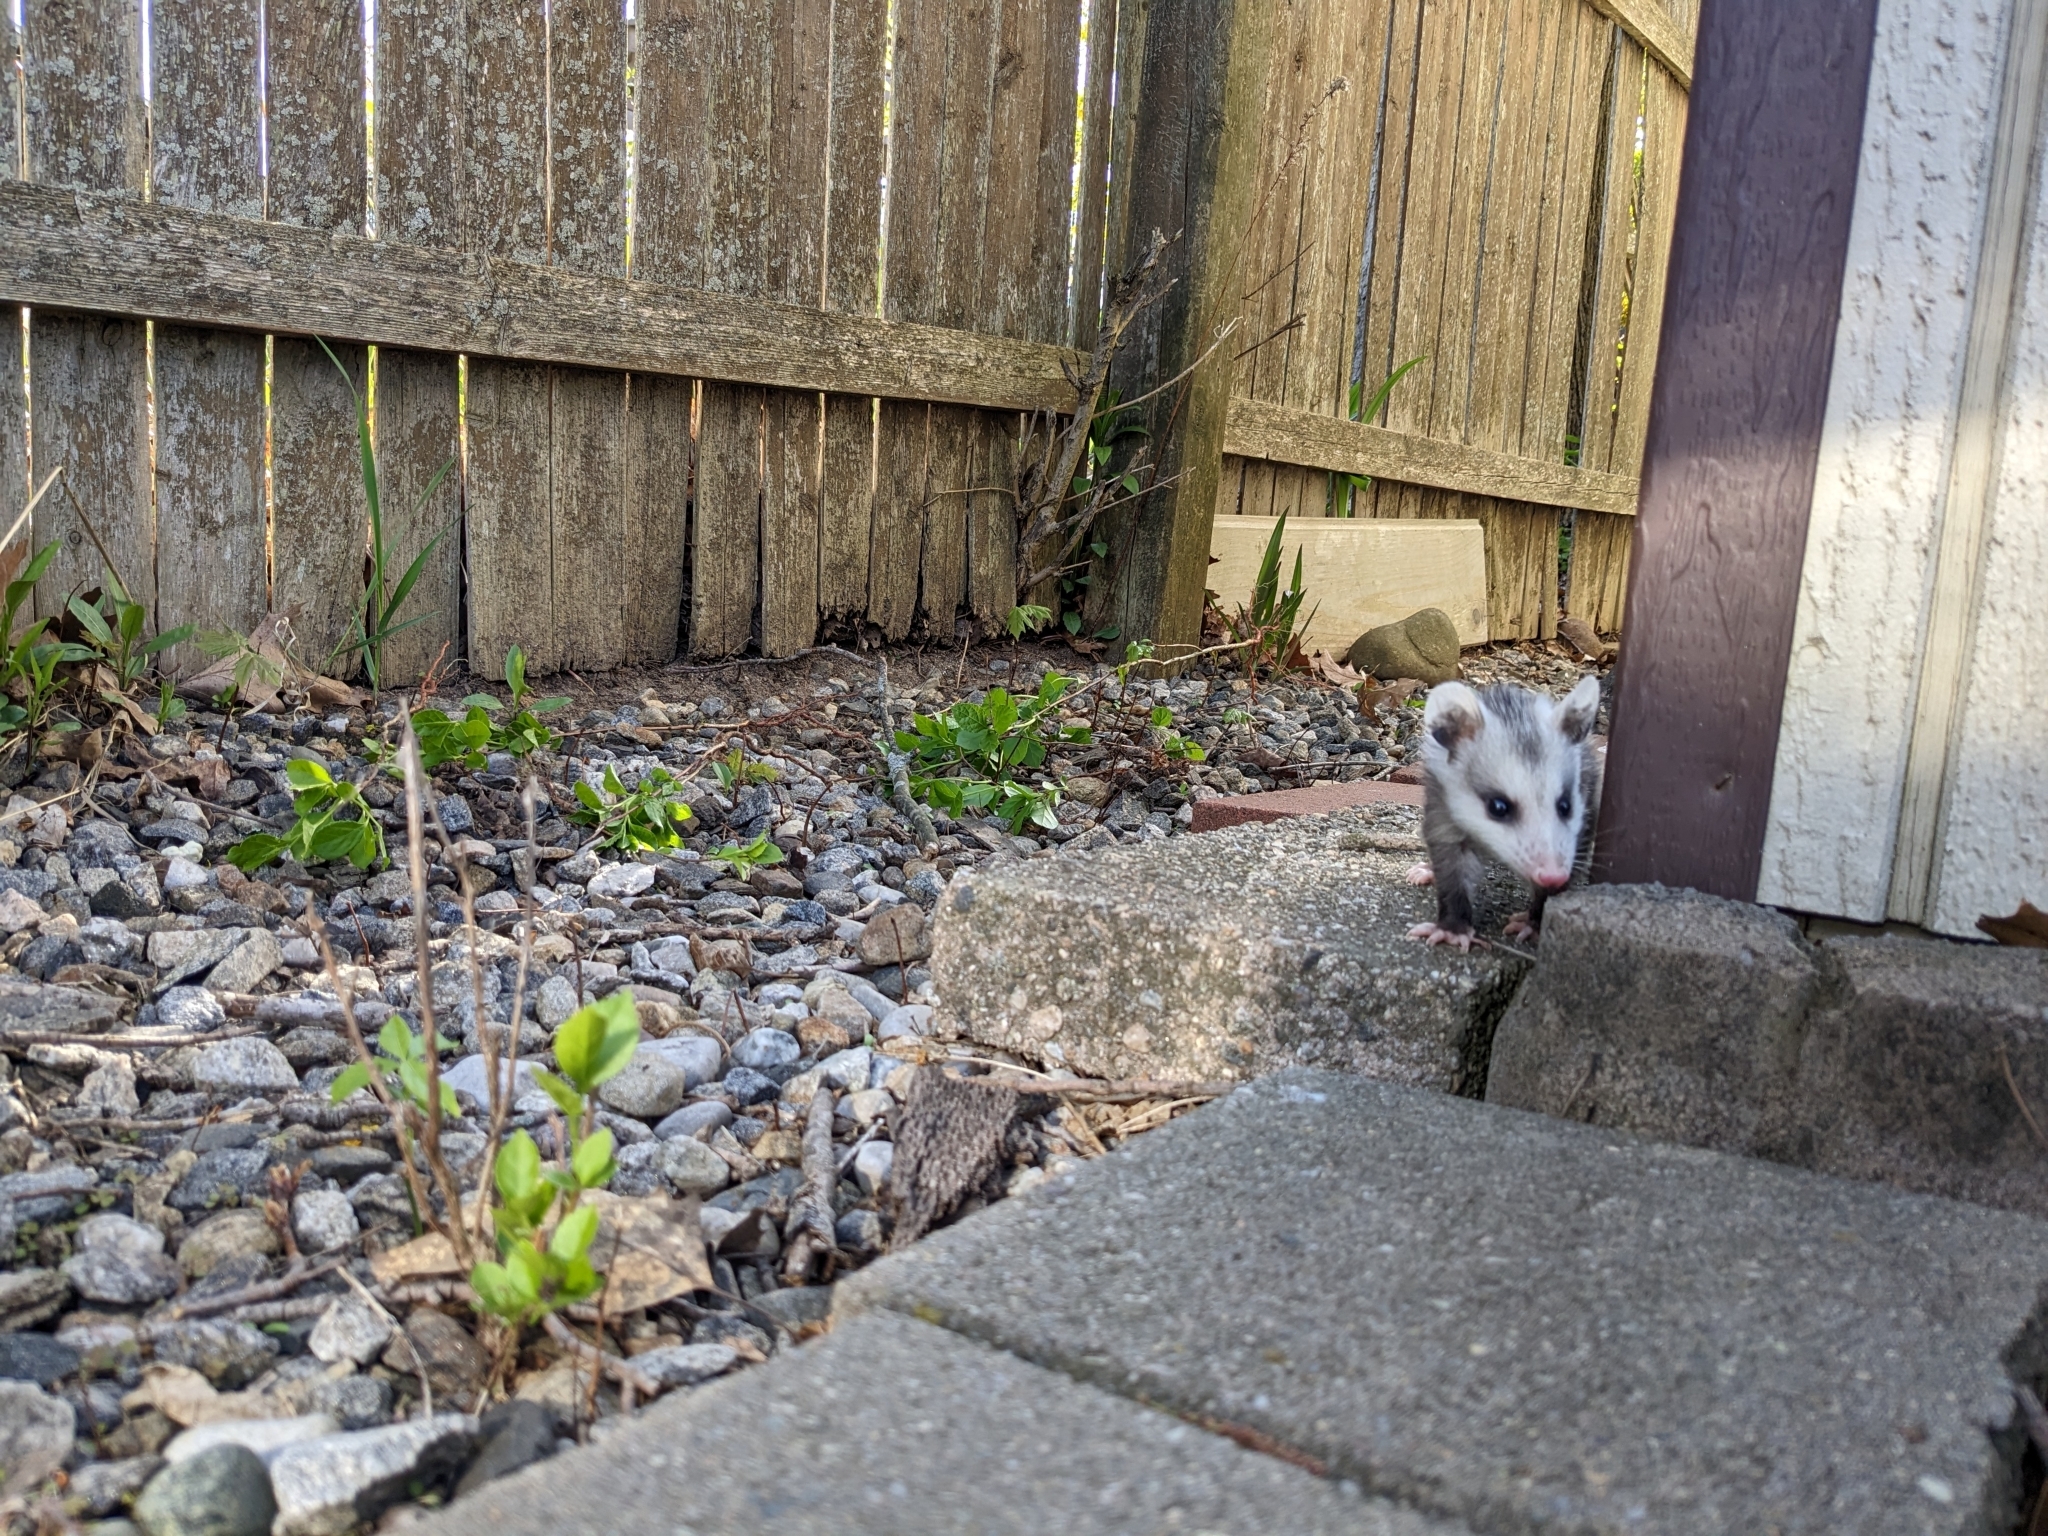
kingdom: Animalia
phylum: Chordata
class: Mammalia
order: Didelphimorphia
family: Didelphidae
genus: Didelphis
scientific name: Didelphis virginiana
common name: Virginia opossum
